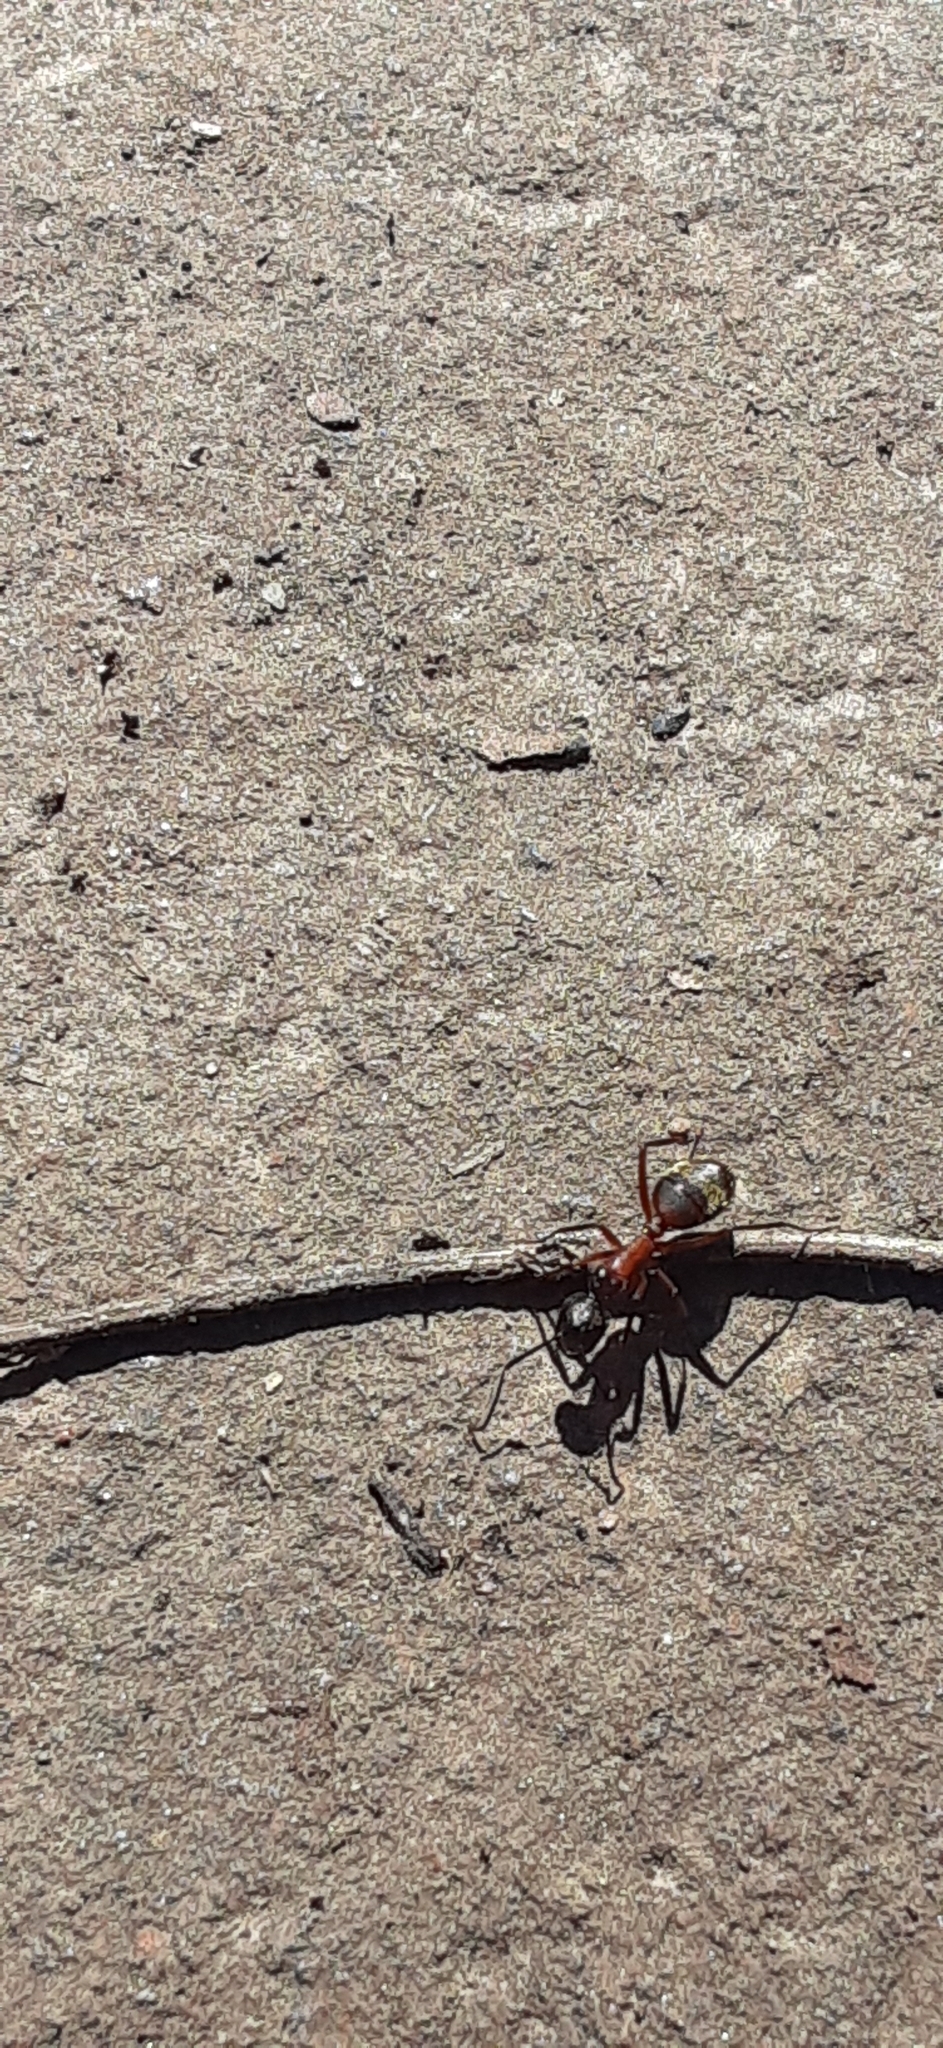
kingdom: Animalia
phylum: Arthropoda
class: Insecta
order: Hymenoptera
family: Formicidae
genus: Camponotus
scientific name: Camponotus chromaiodes
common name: Red carpenter ant
